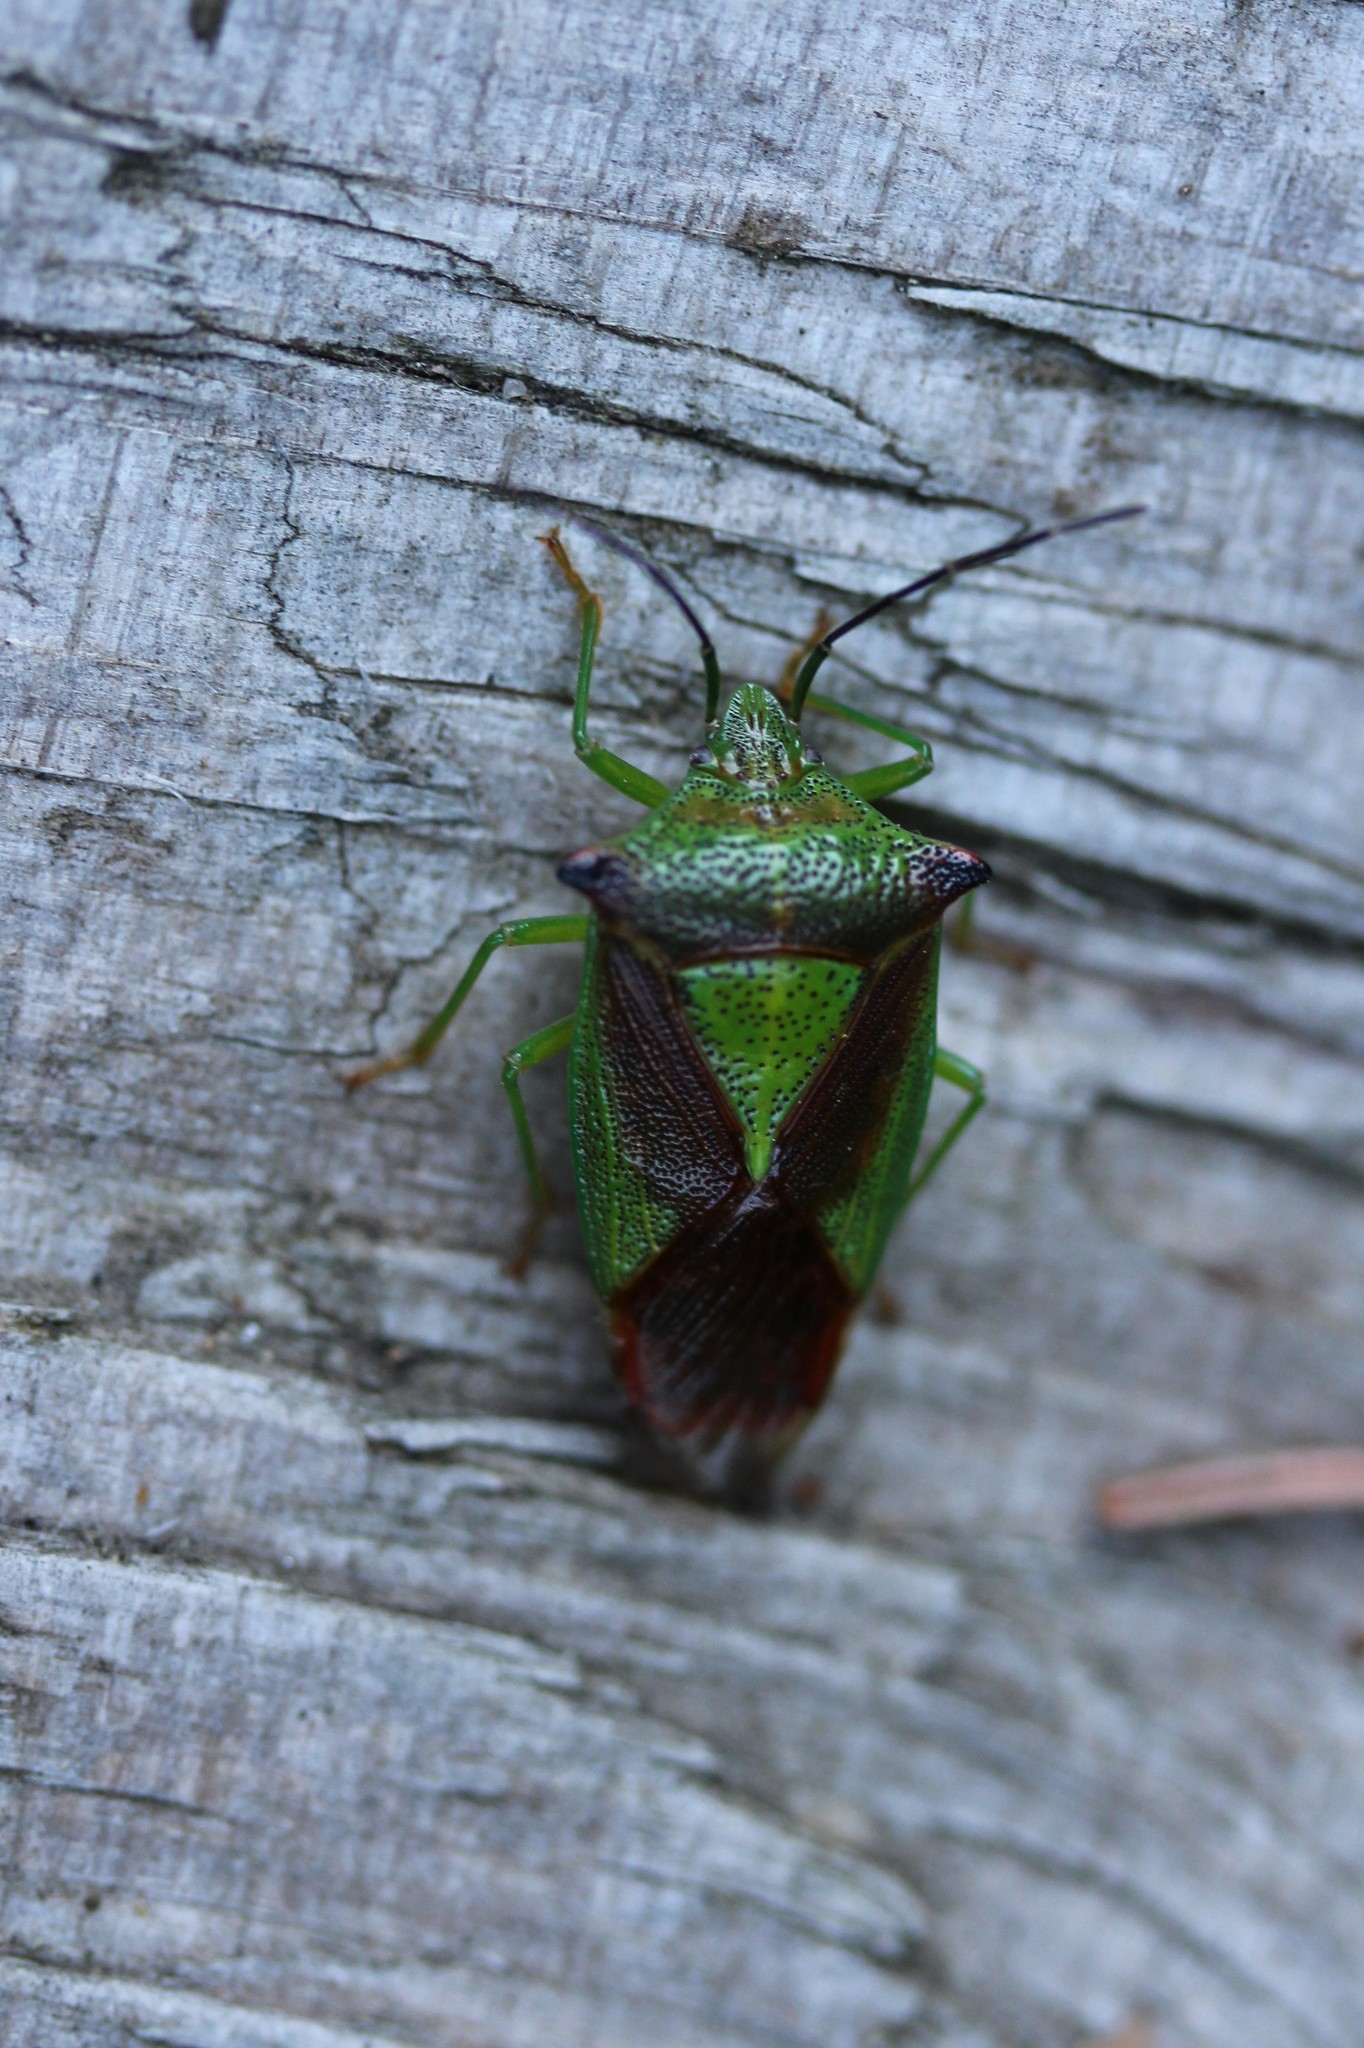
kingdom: Animalia
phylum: Arthropoda
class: Insecta
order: Hemiptera
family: Acanthosomatidae
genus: Acanthosoma
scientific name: Acanthosoma haemorrhoidale
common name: Hawthorn shieldbug
